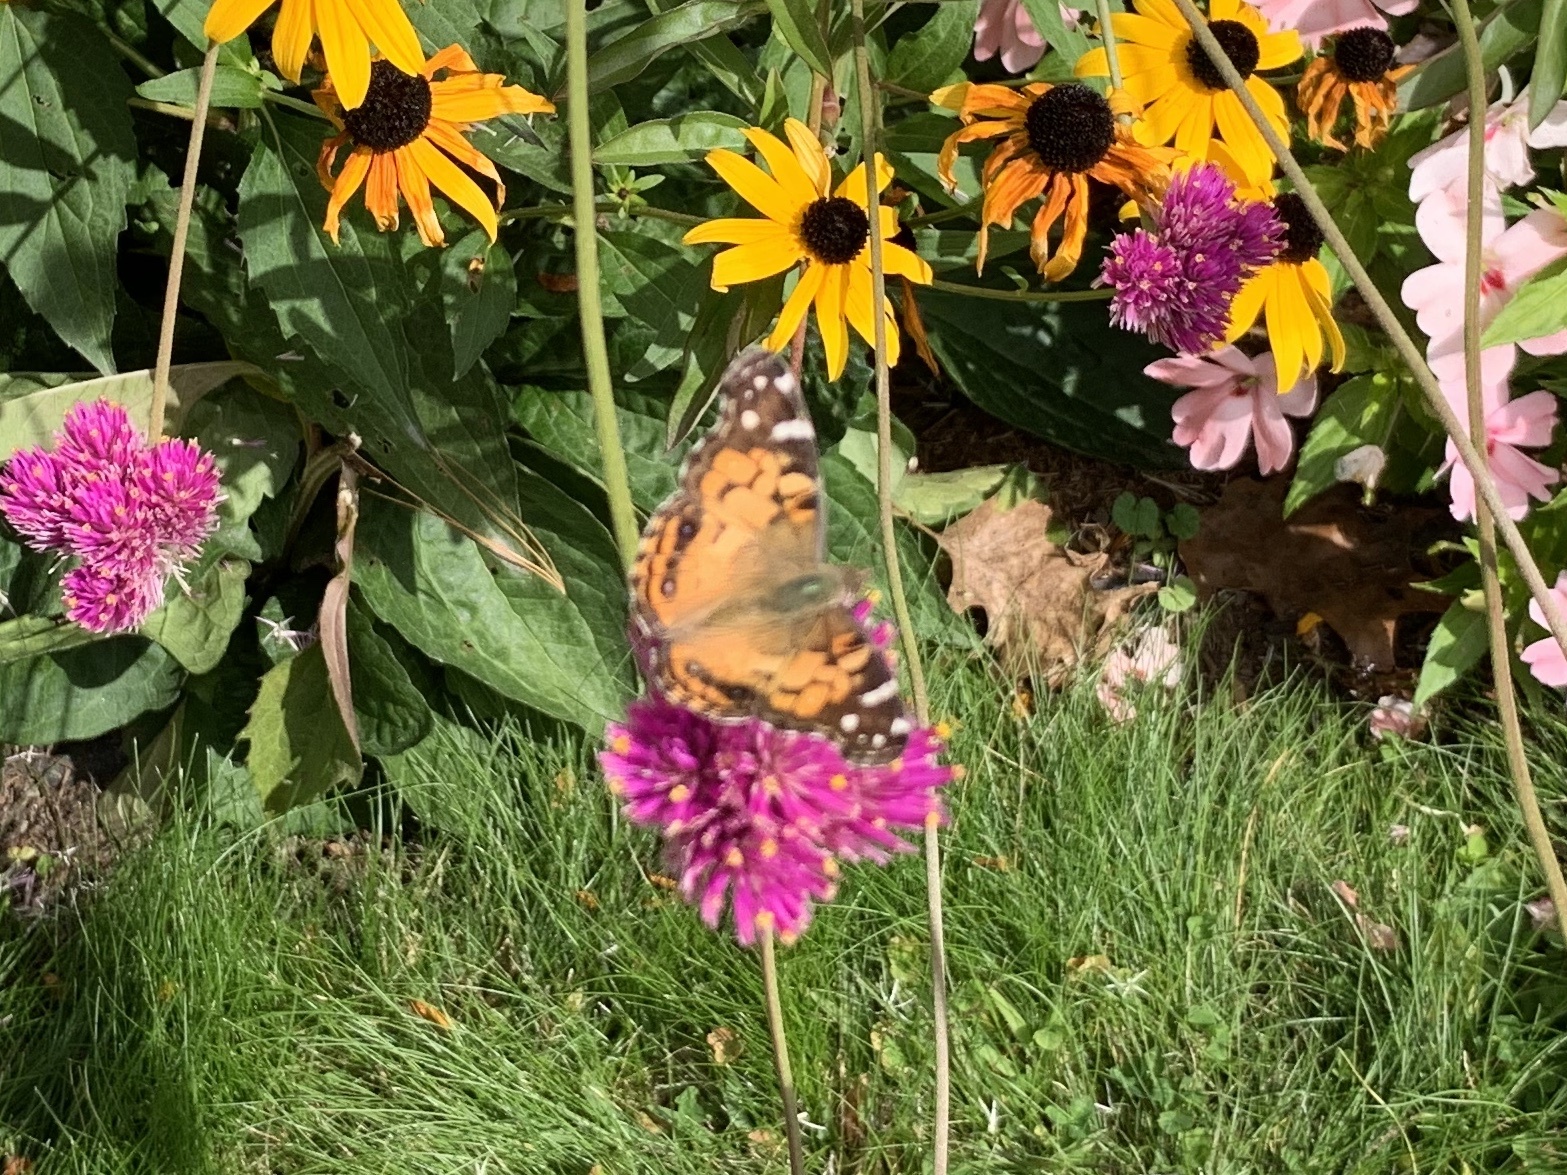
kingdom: Animalia
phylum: Arthropoda
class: Insecta
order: Lepidoptera
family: Nymphalidae
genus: Vanessa
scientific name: Vanessa virginiensis
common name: American lady
